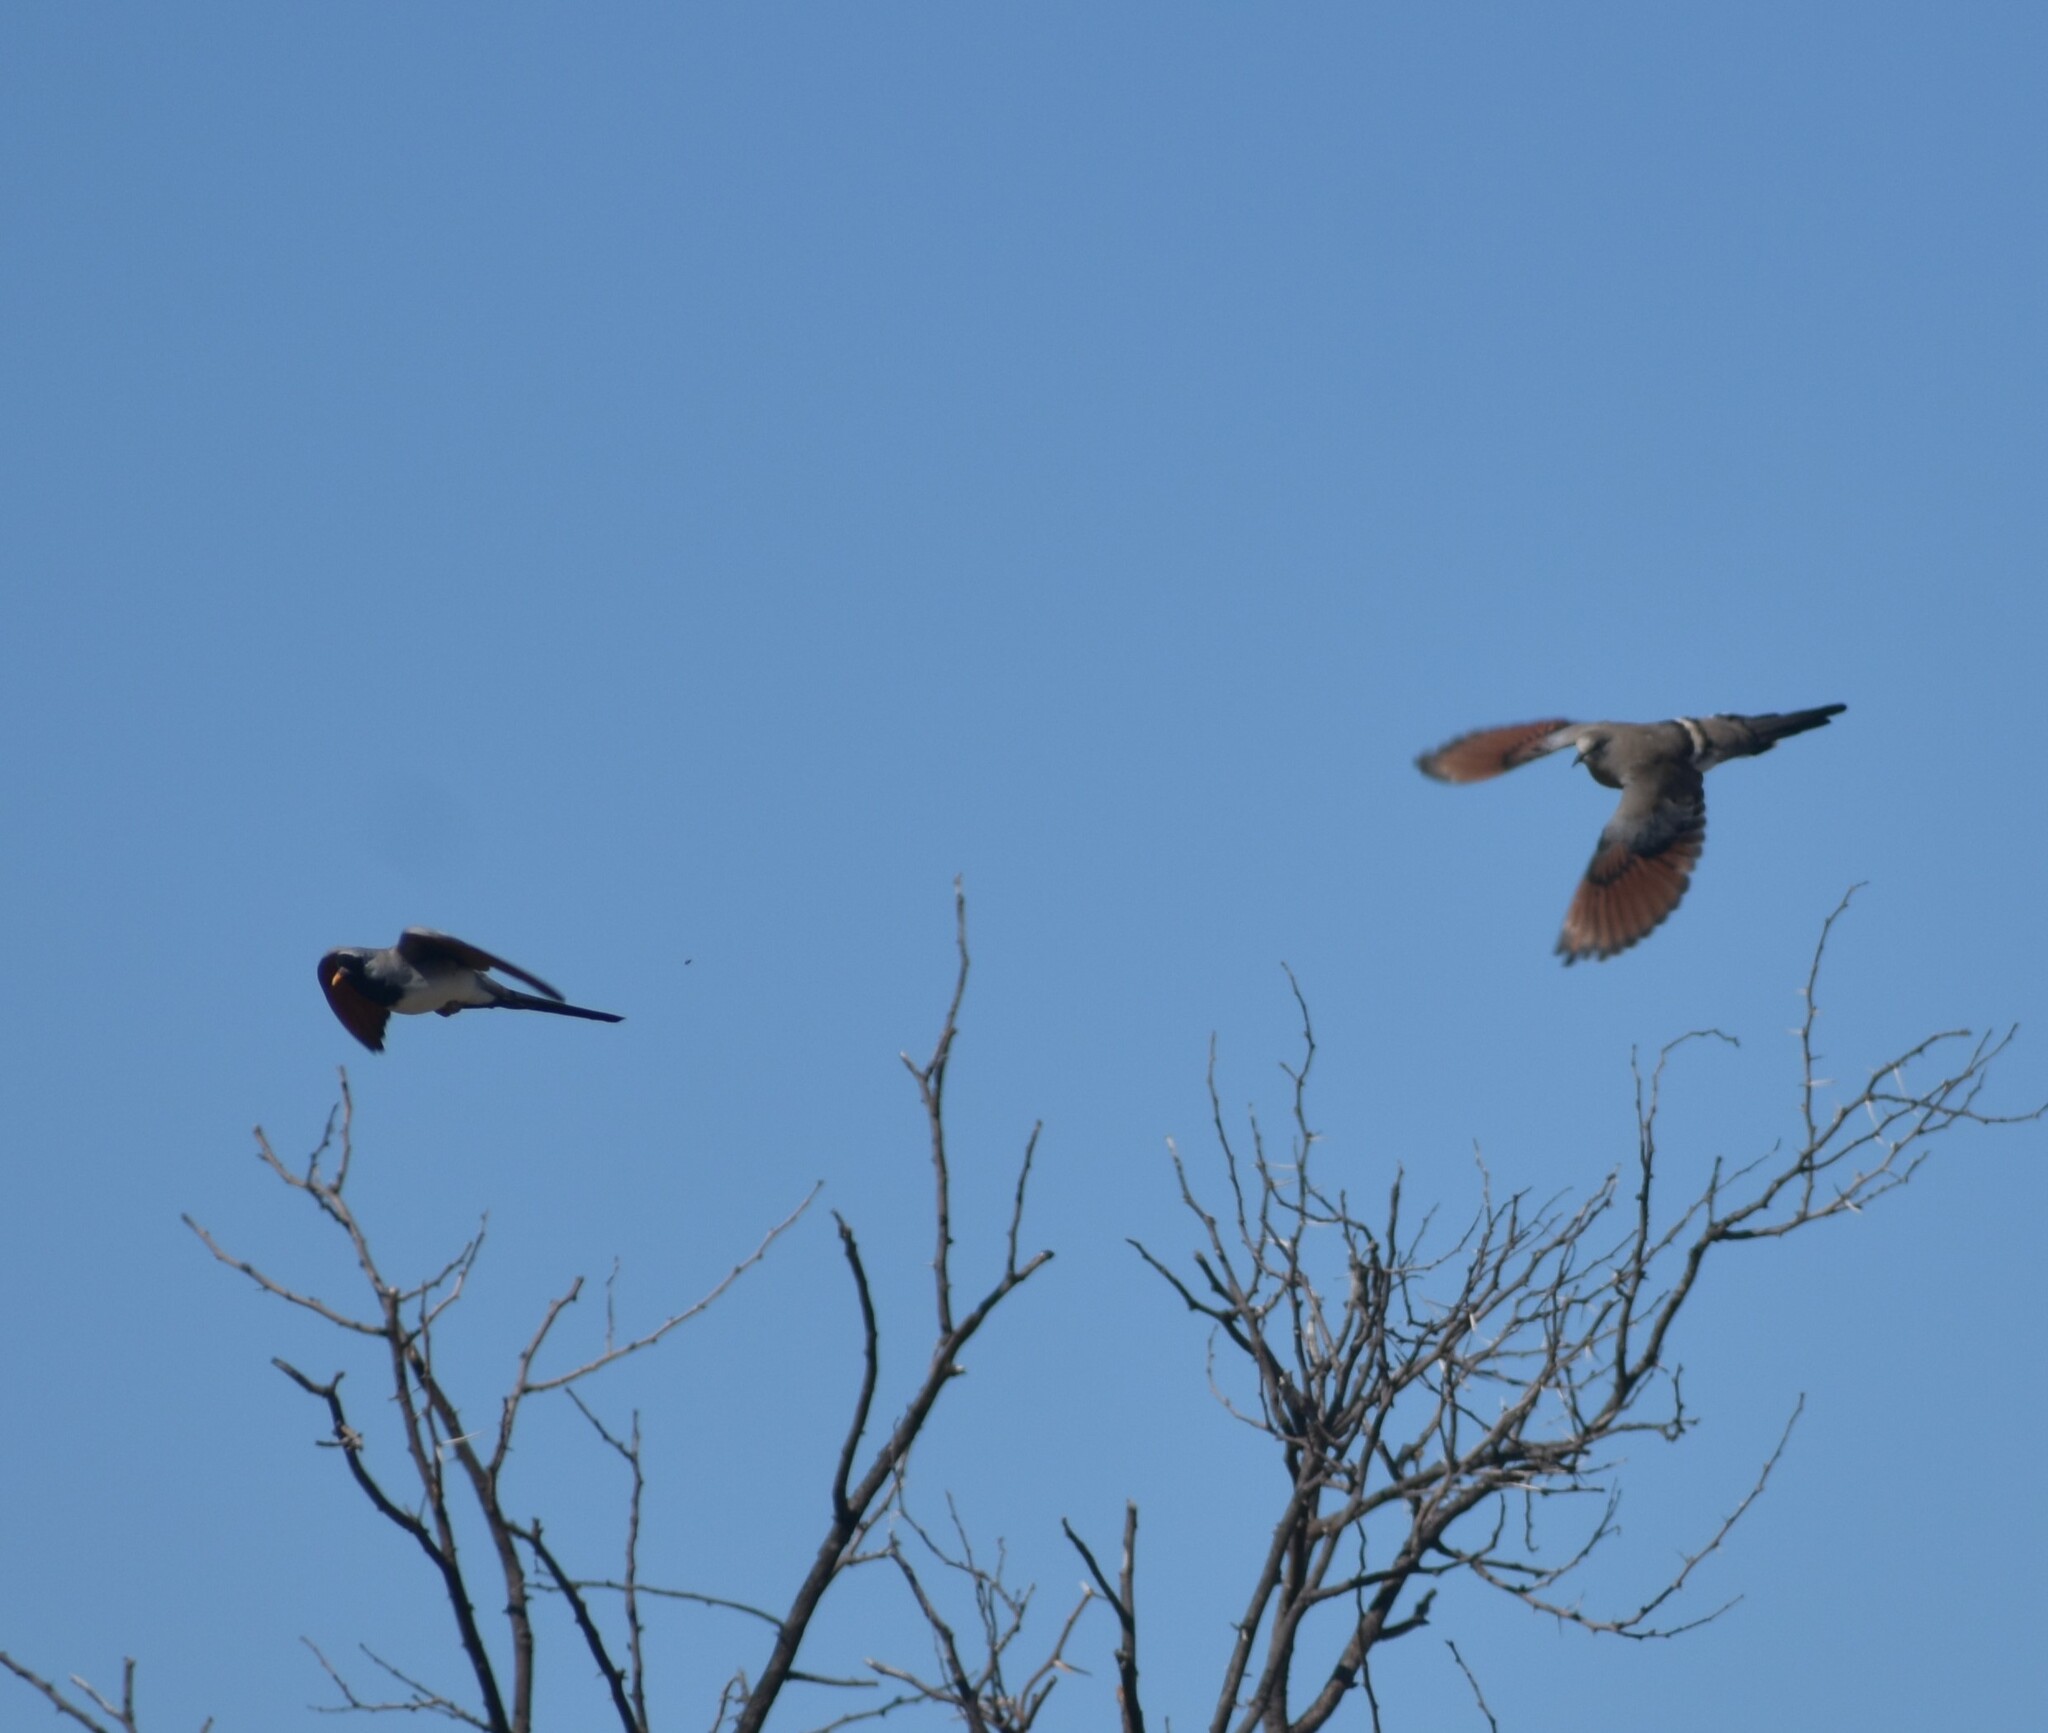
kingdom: Animalia
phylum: Chordata
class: Aves
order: Columbiformes
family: Columbidae
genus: Oena
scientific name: Oena capensis
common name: Namaqua dove
